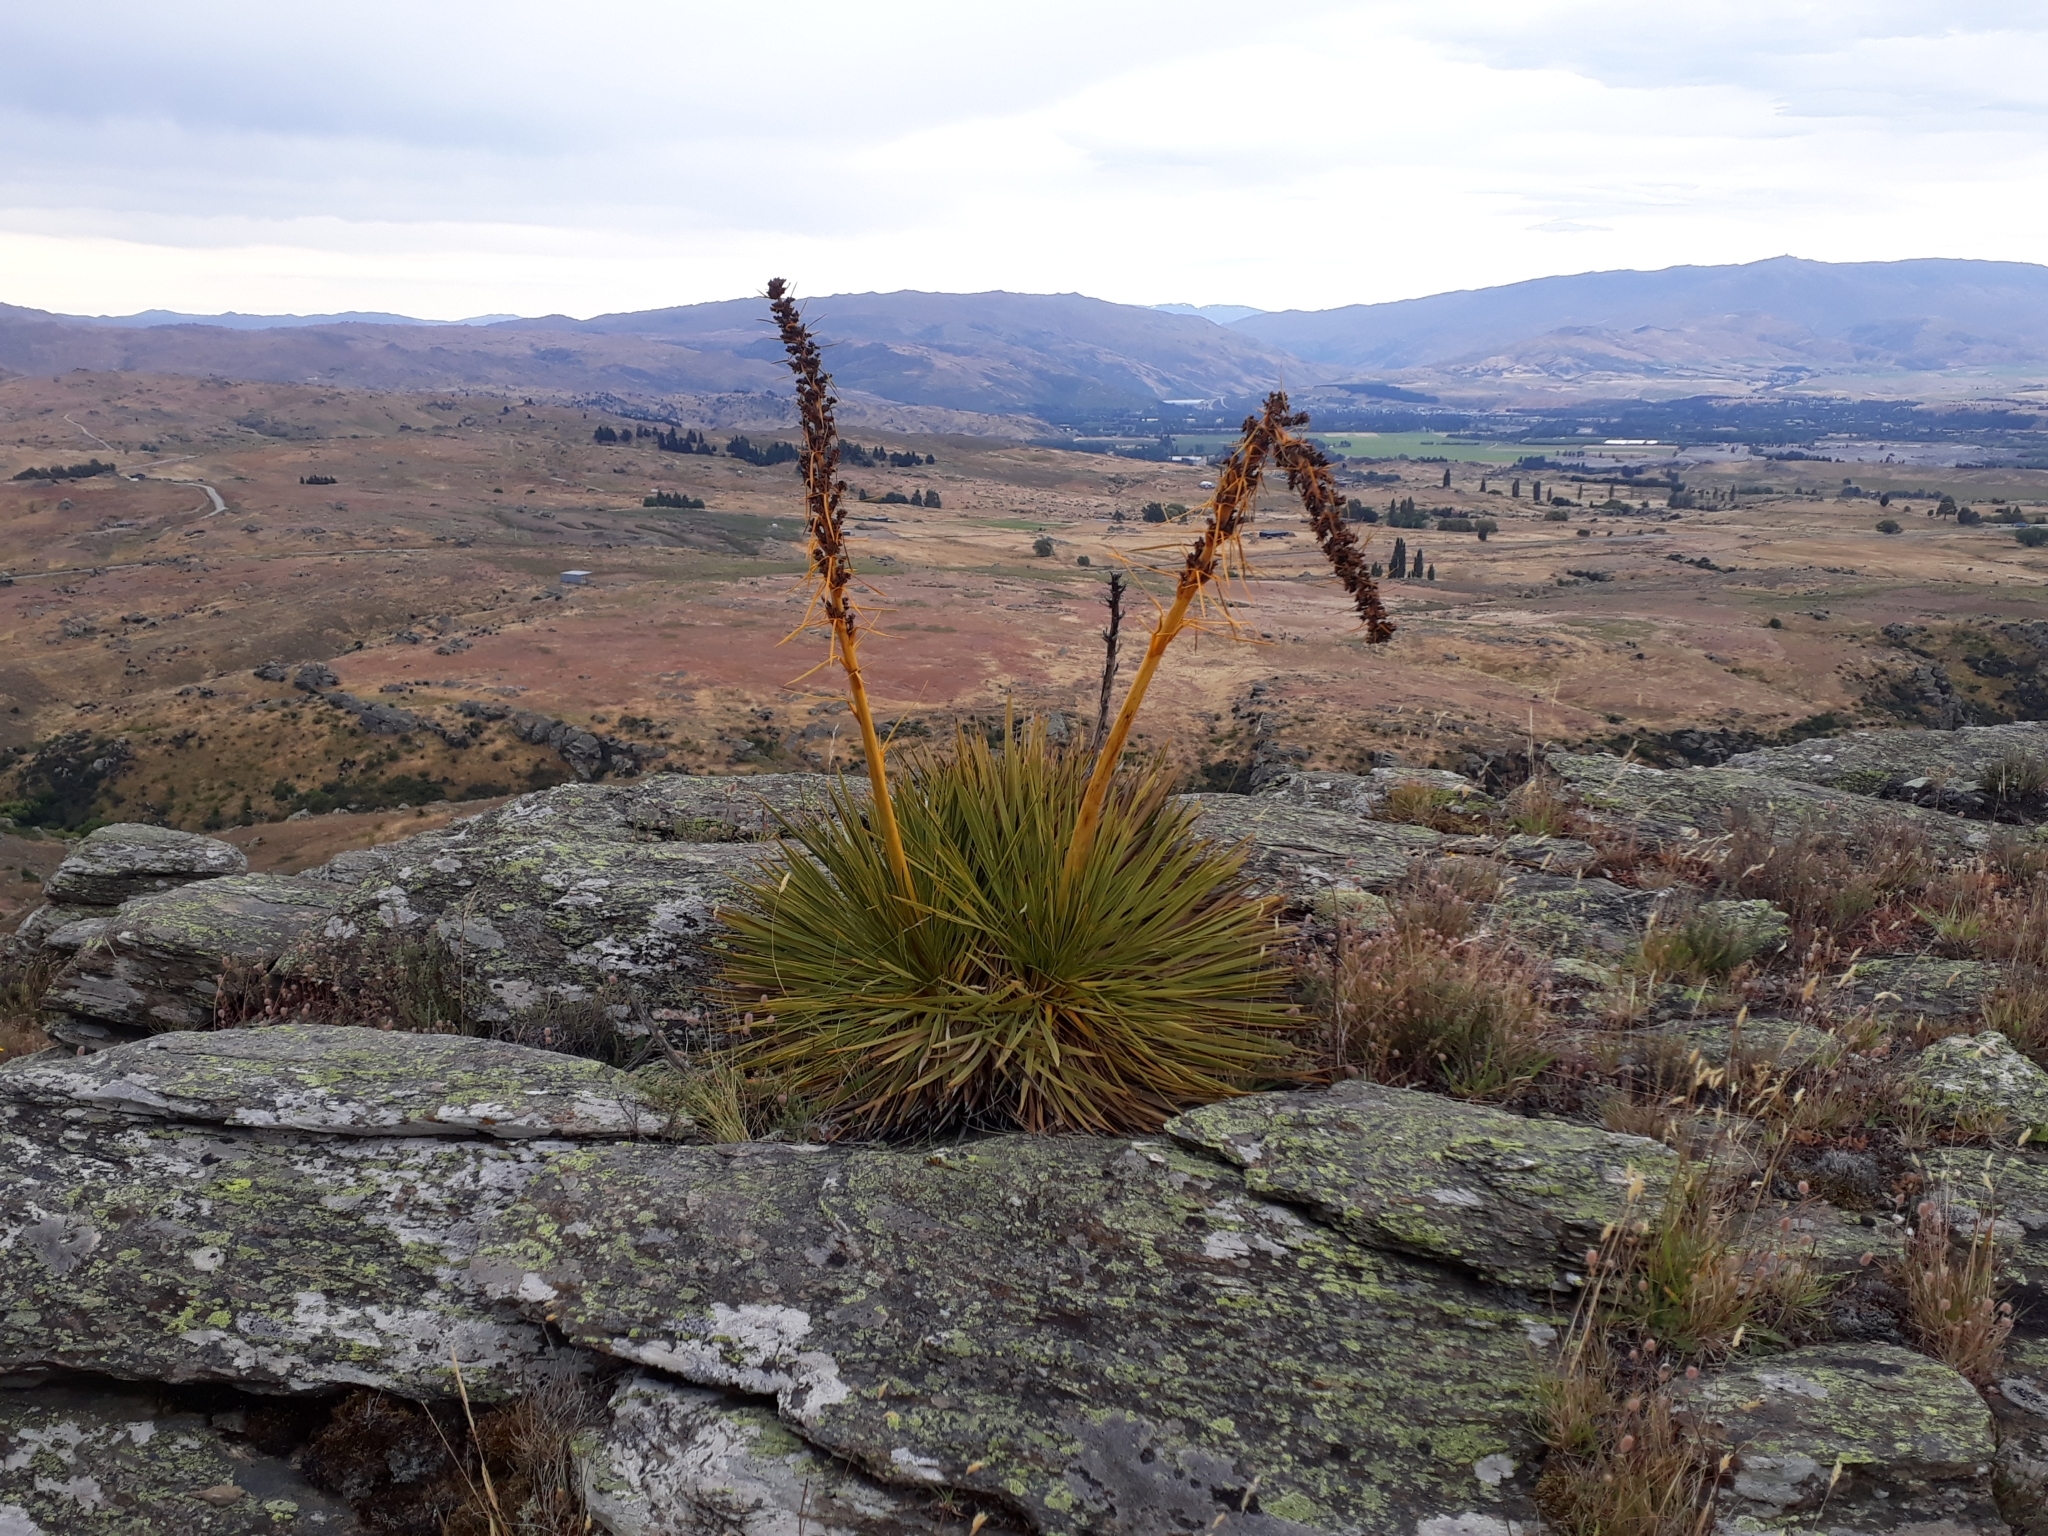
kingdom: Plantae
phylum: Tracheophyta
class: Magnoliopsida
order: Apiales
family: Apiaceae
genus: Aciphylla
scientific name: Aciphylla aurea
